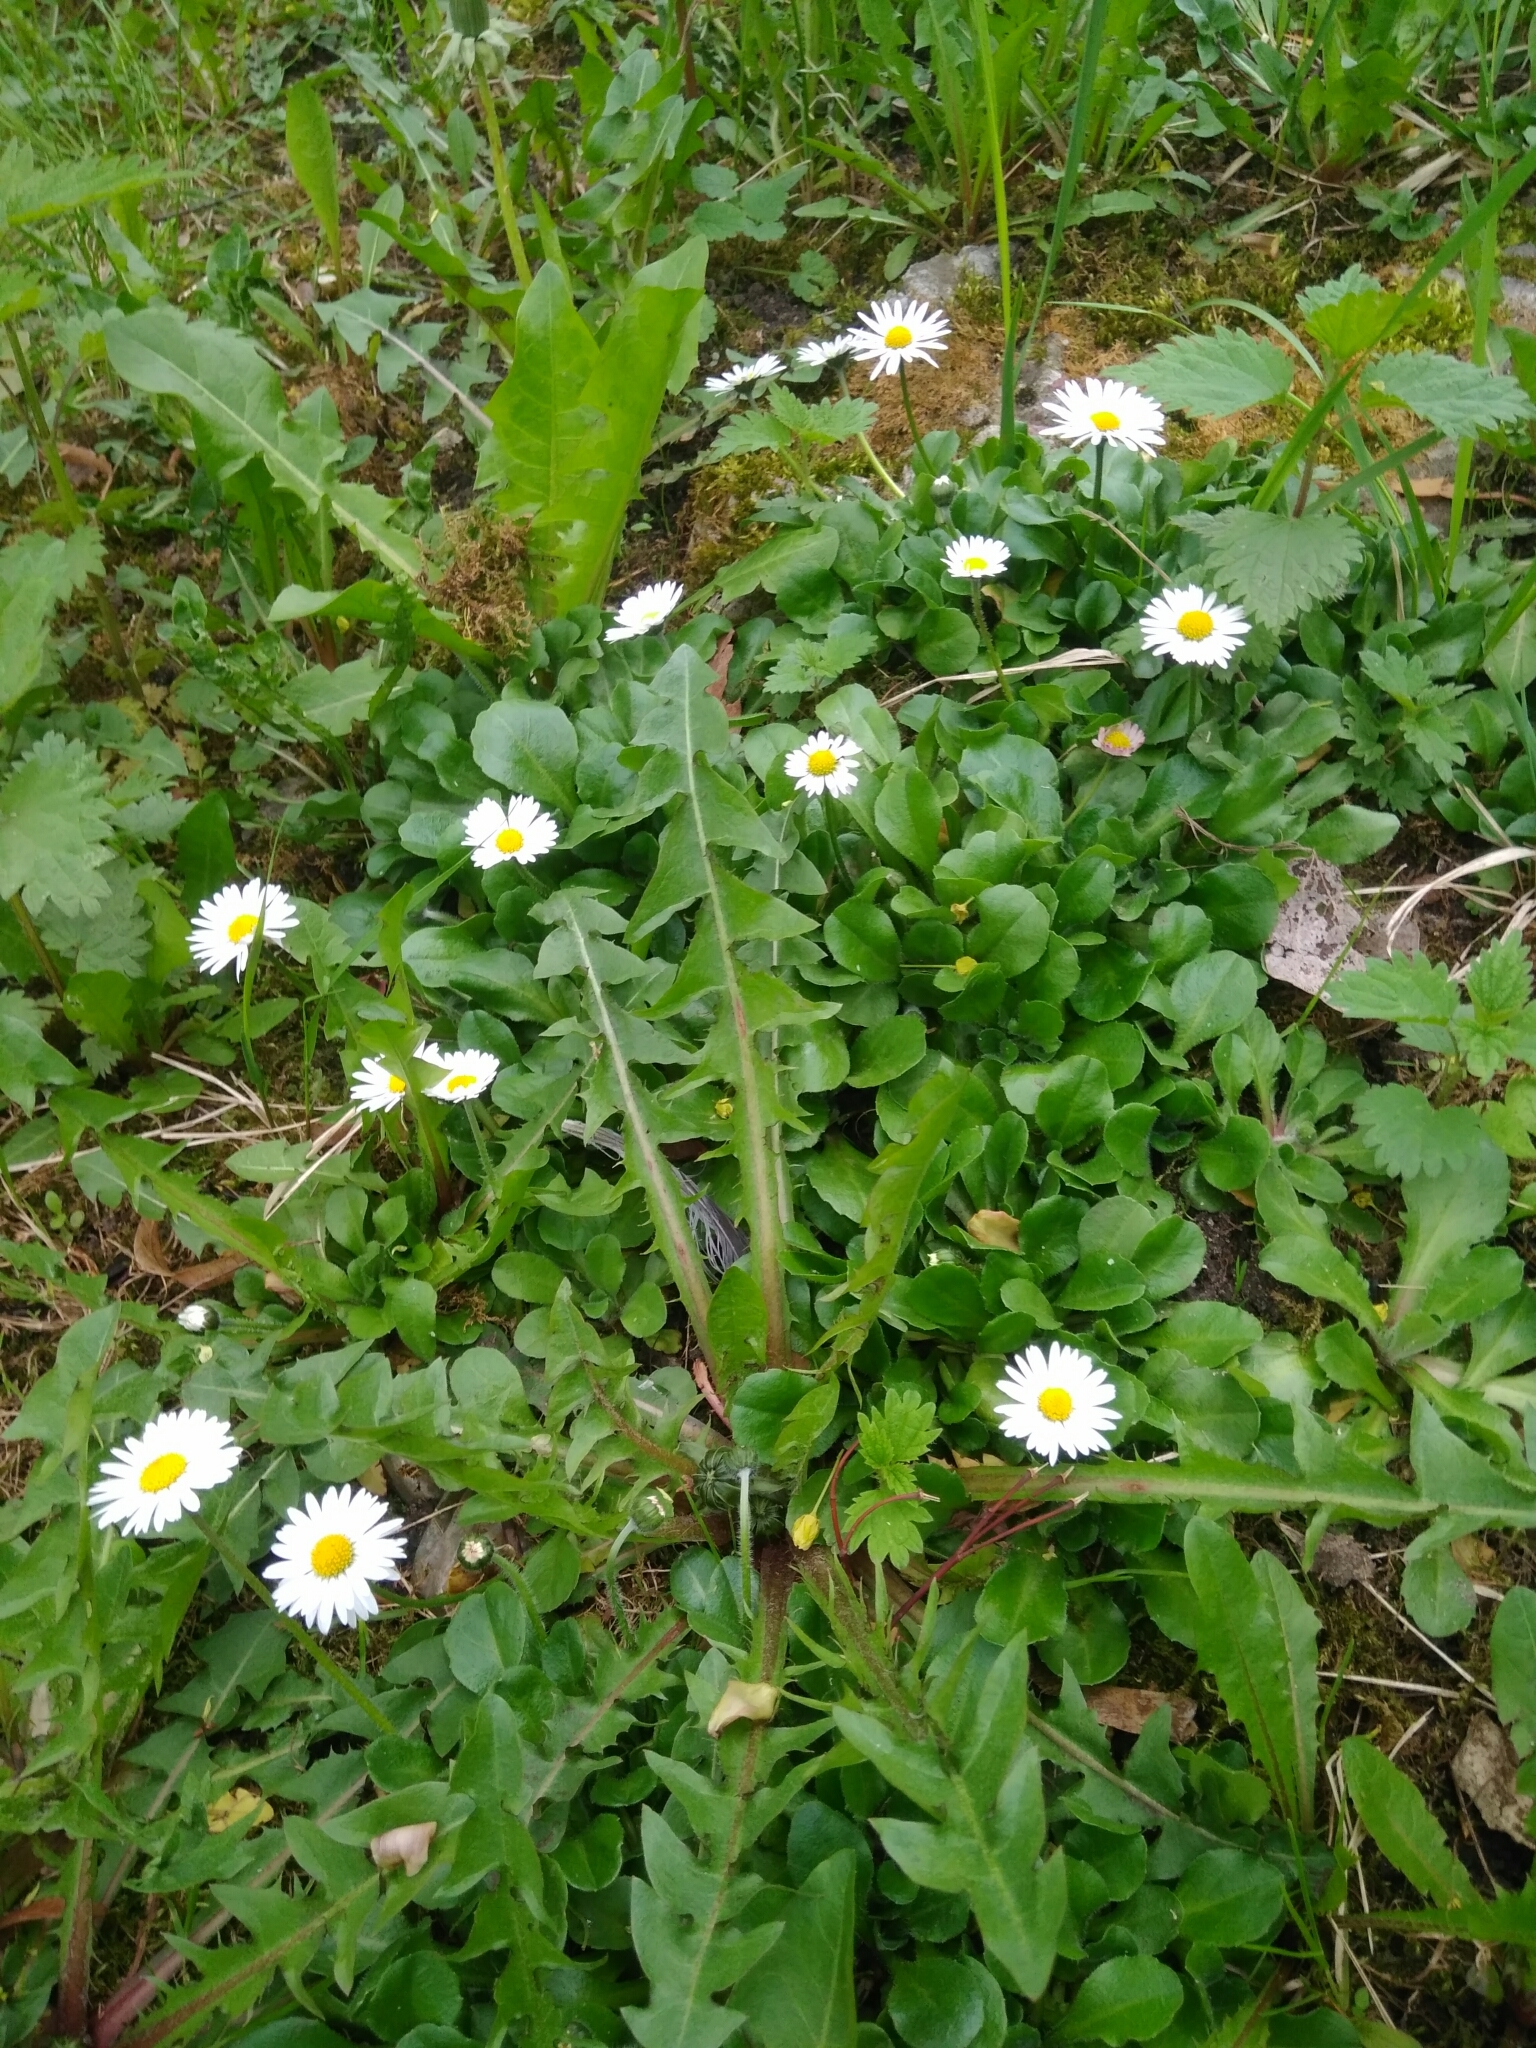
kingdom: Plantae
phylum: Tracheophyta
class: Magnoliopsida
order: Asterales
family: Asteraceae
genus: Bellis
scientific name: Bellis perennis
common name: Lawndaisy
